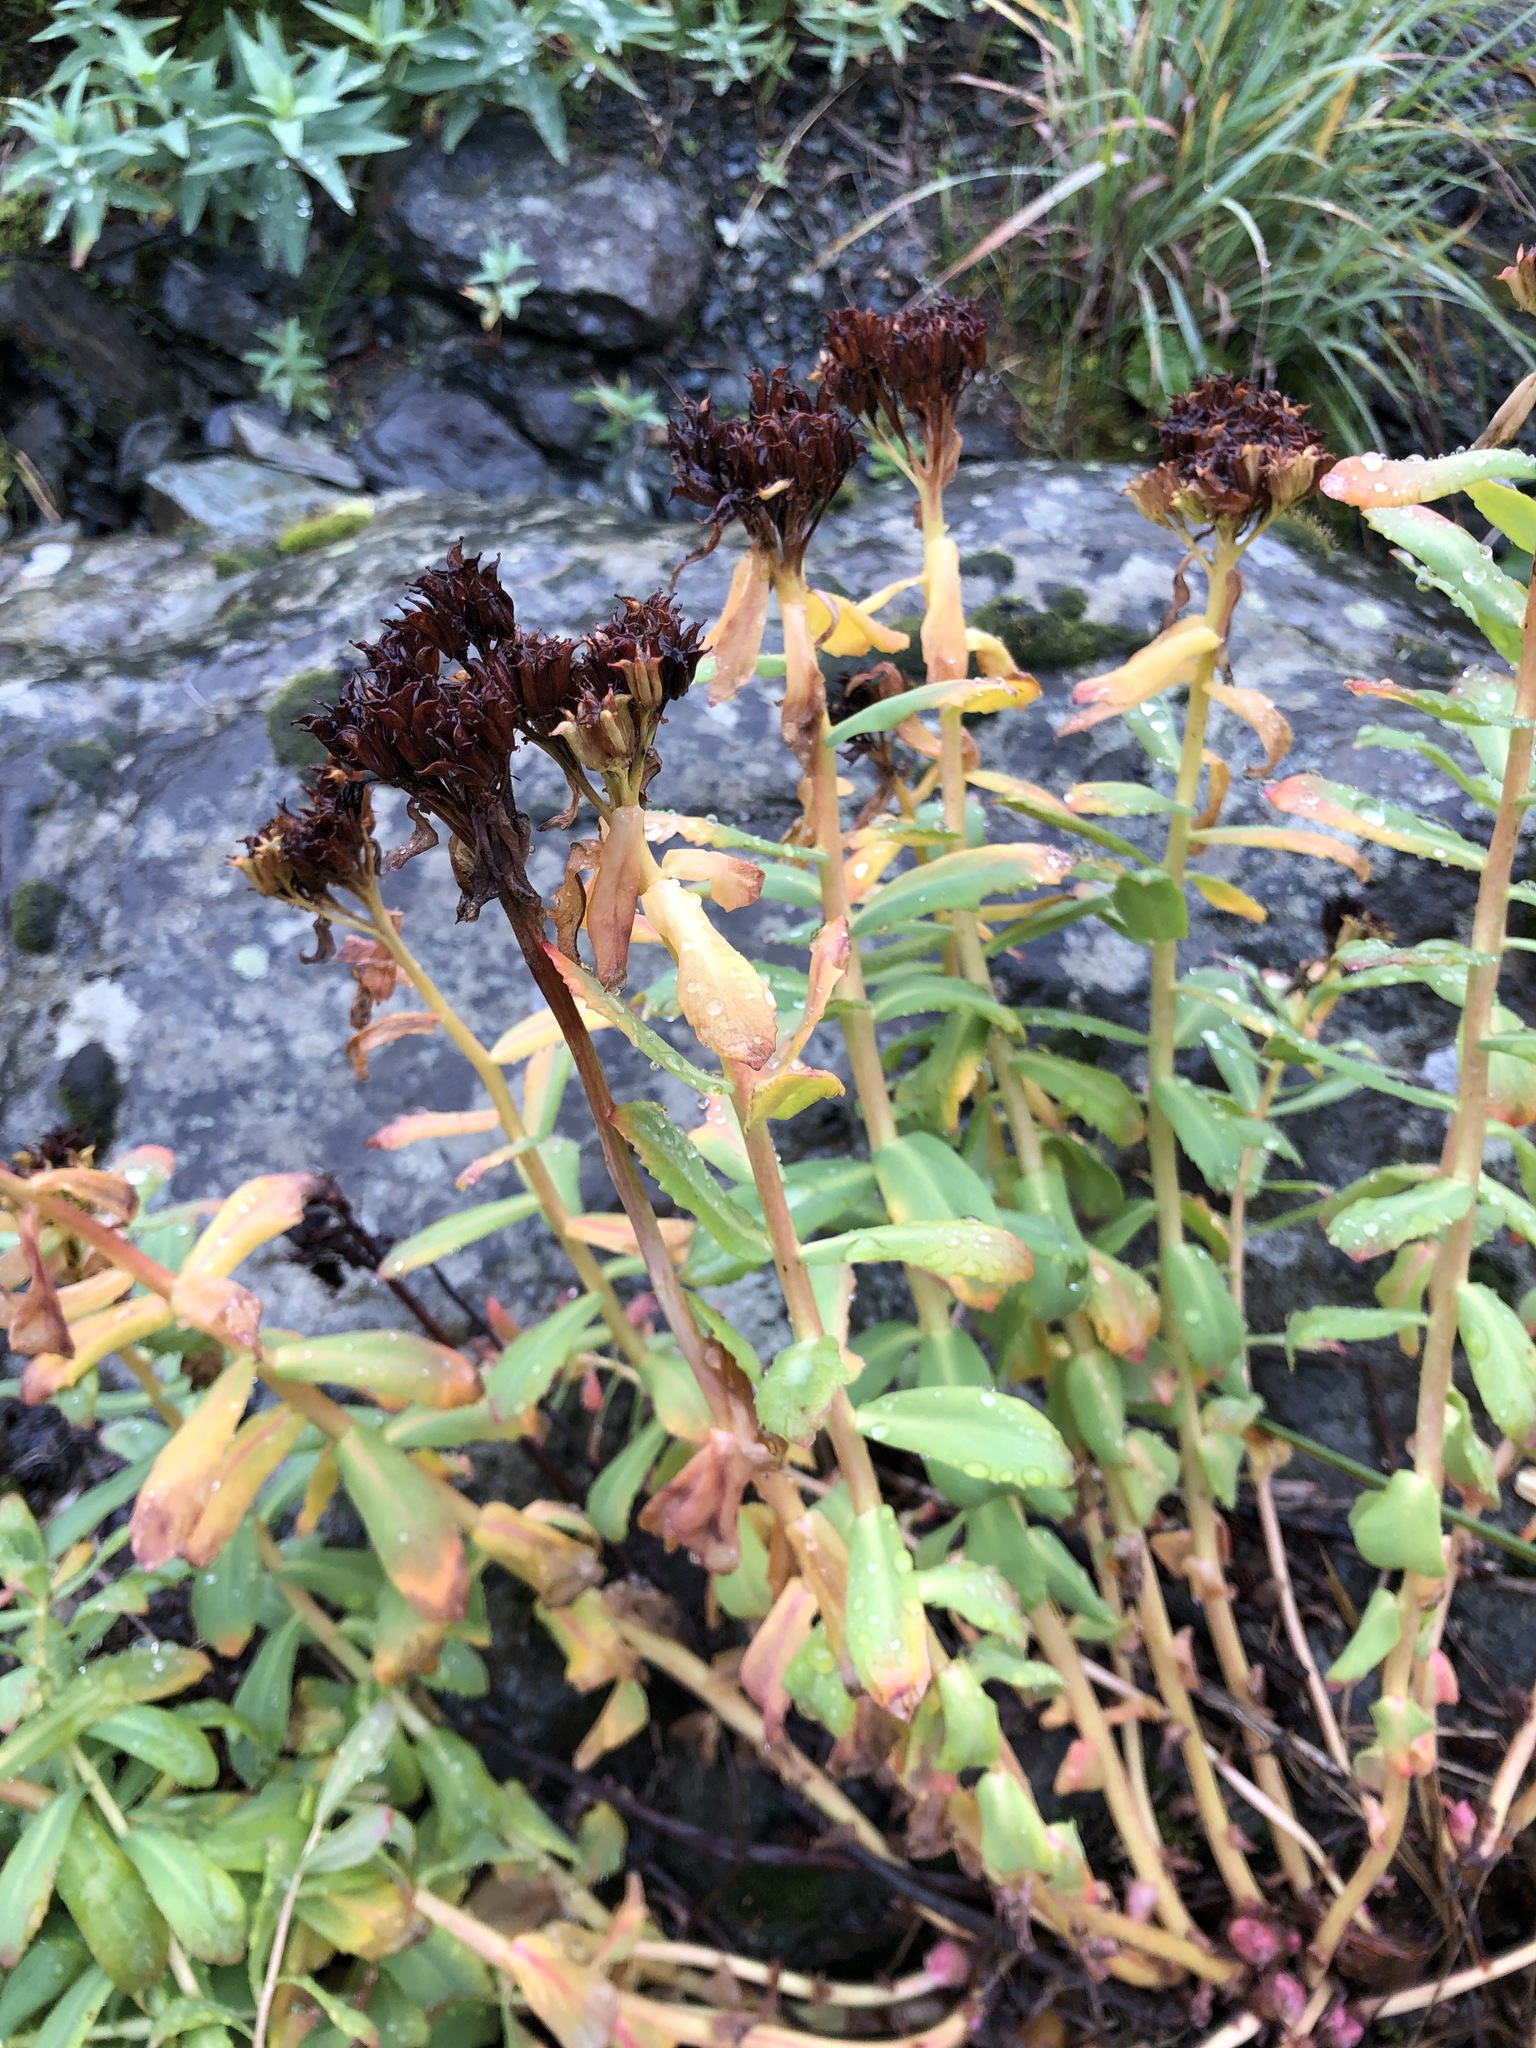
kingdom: Plantae
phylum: Tracheophyta
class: Magnoliopsida
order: Saxifragales
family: Crassulaceae
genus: Rhodiola
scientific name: Rhodiola rosea
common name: Roseroot
